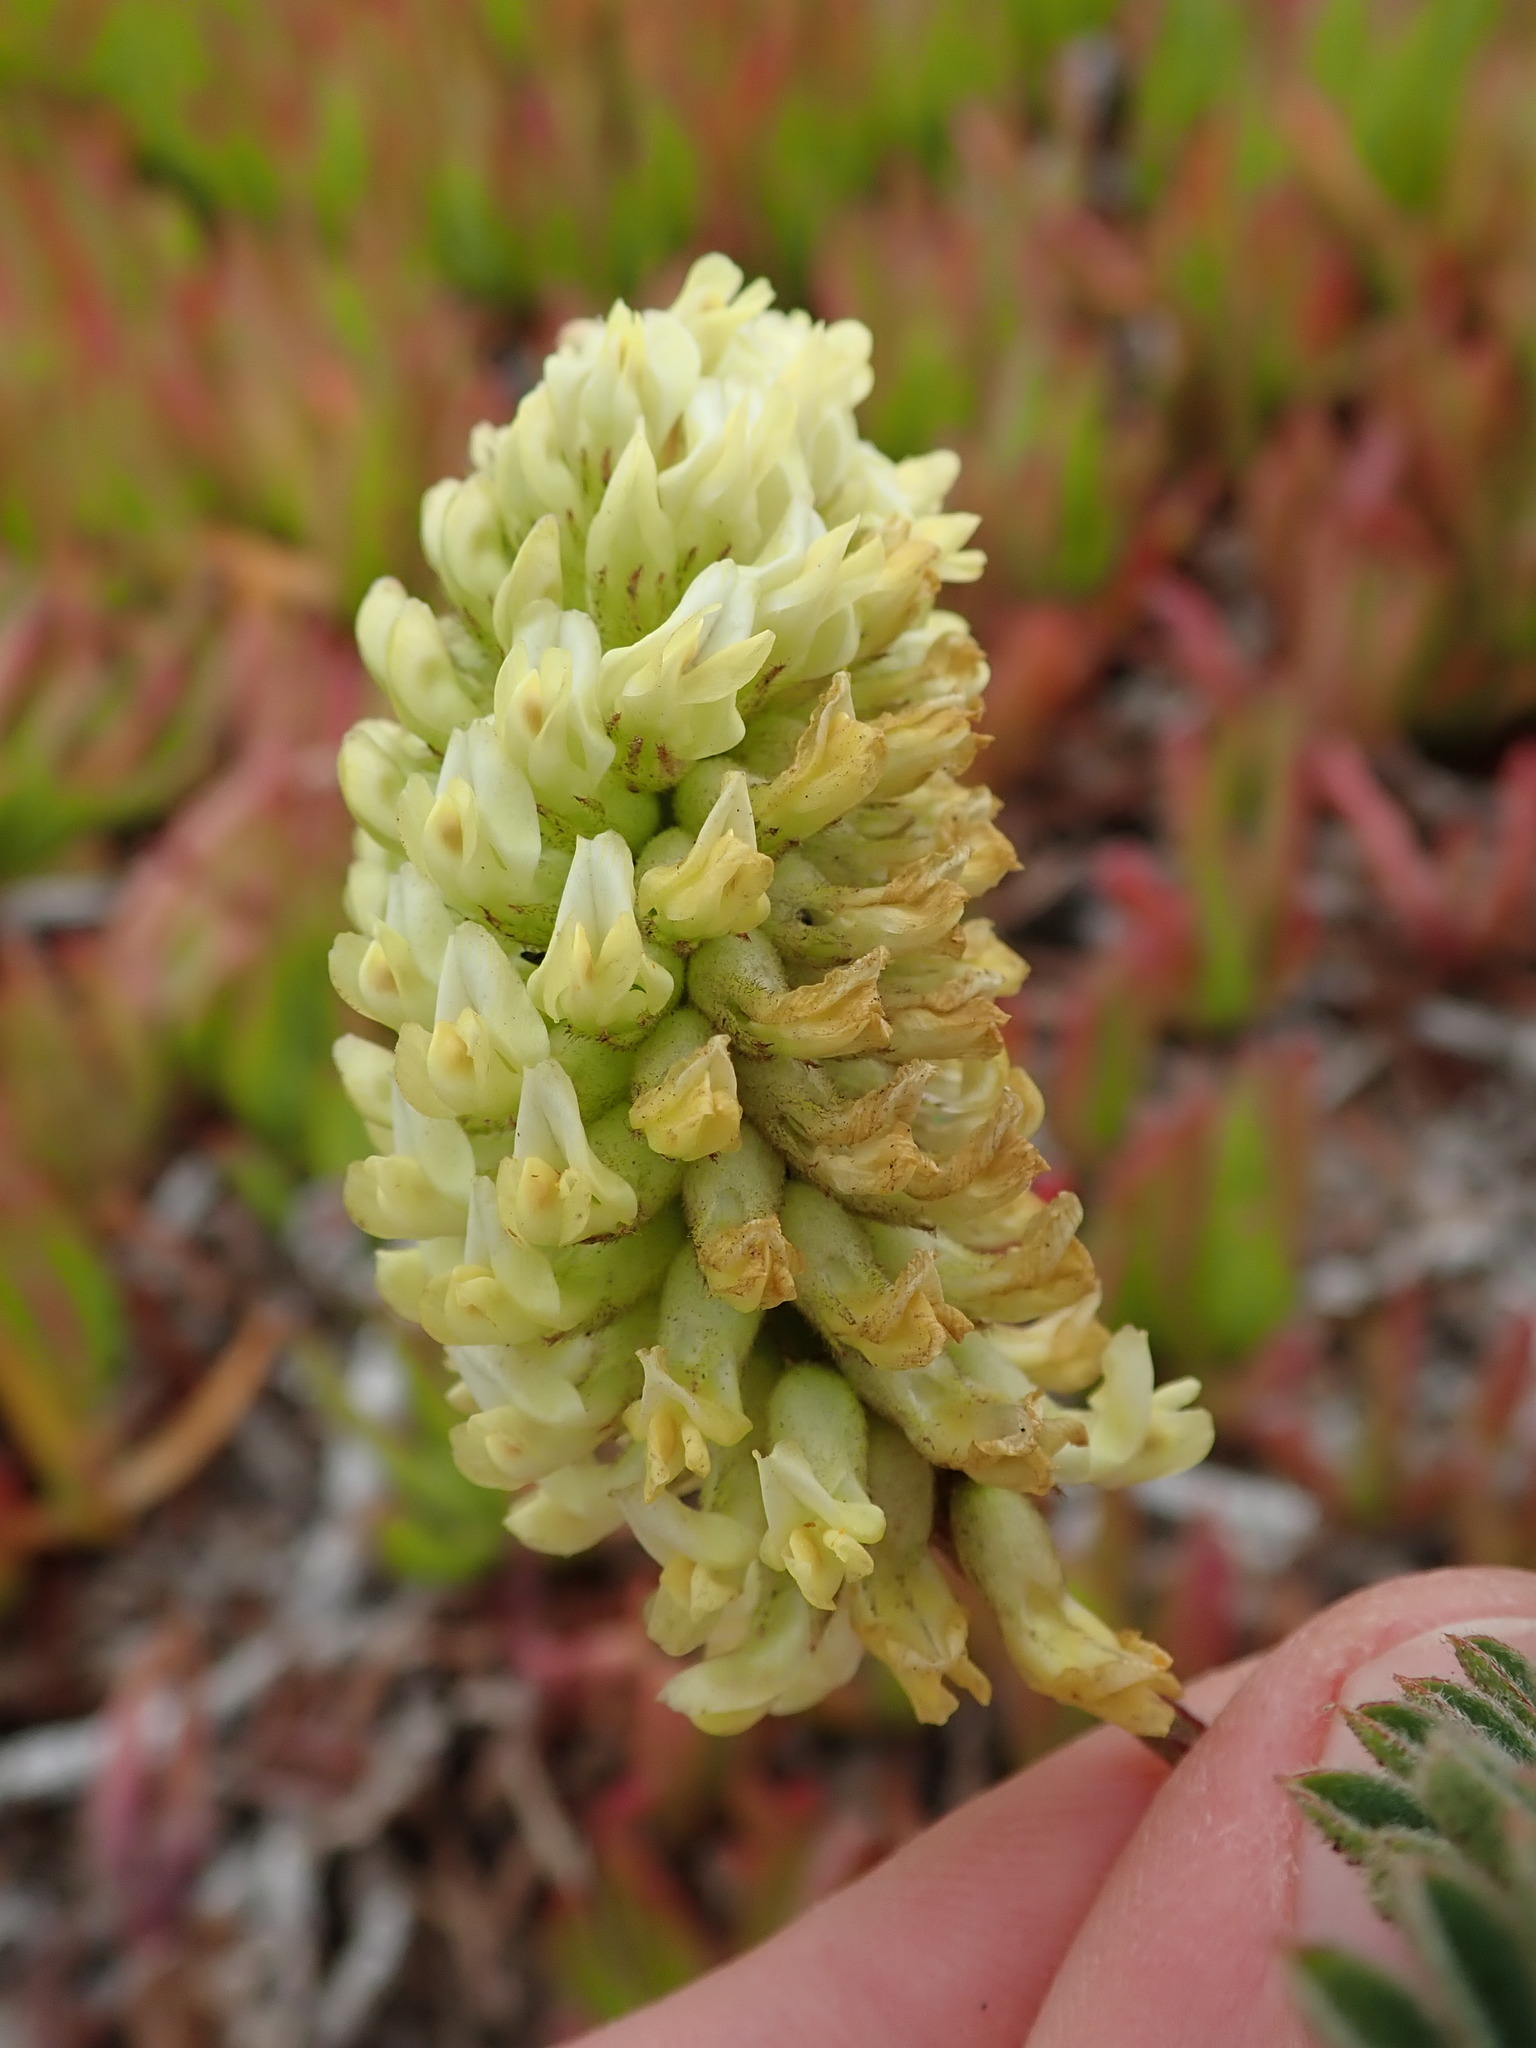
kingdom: Plantae
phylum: Tracheophyta
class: Magnoliopsida
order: Fabales
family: Fabaceae
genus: Astragalus
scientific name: Astragalus pycnostachyus
